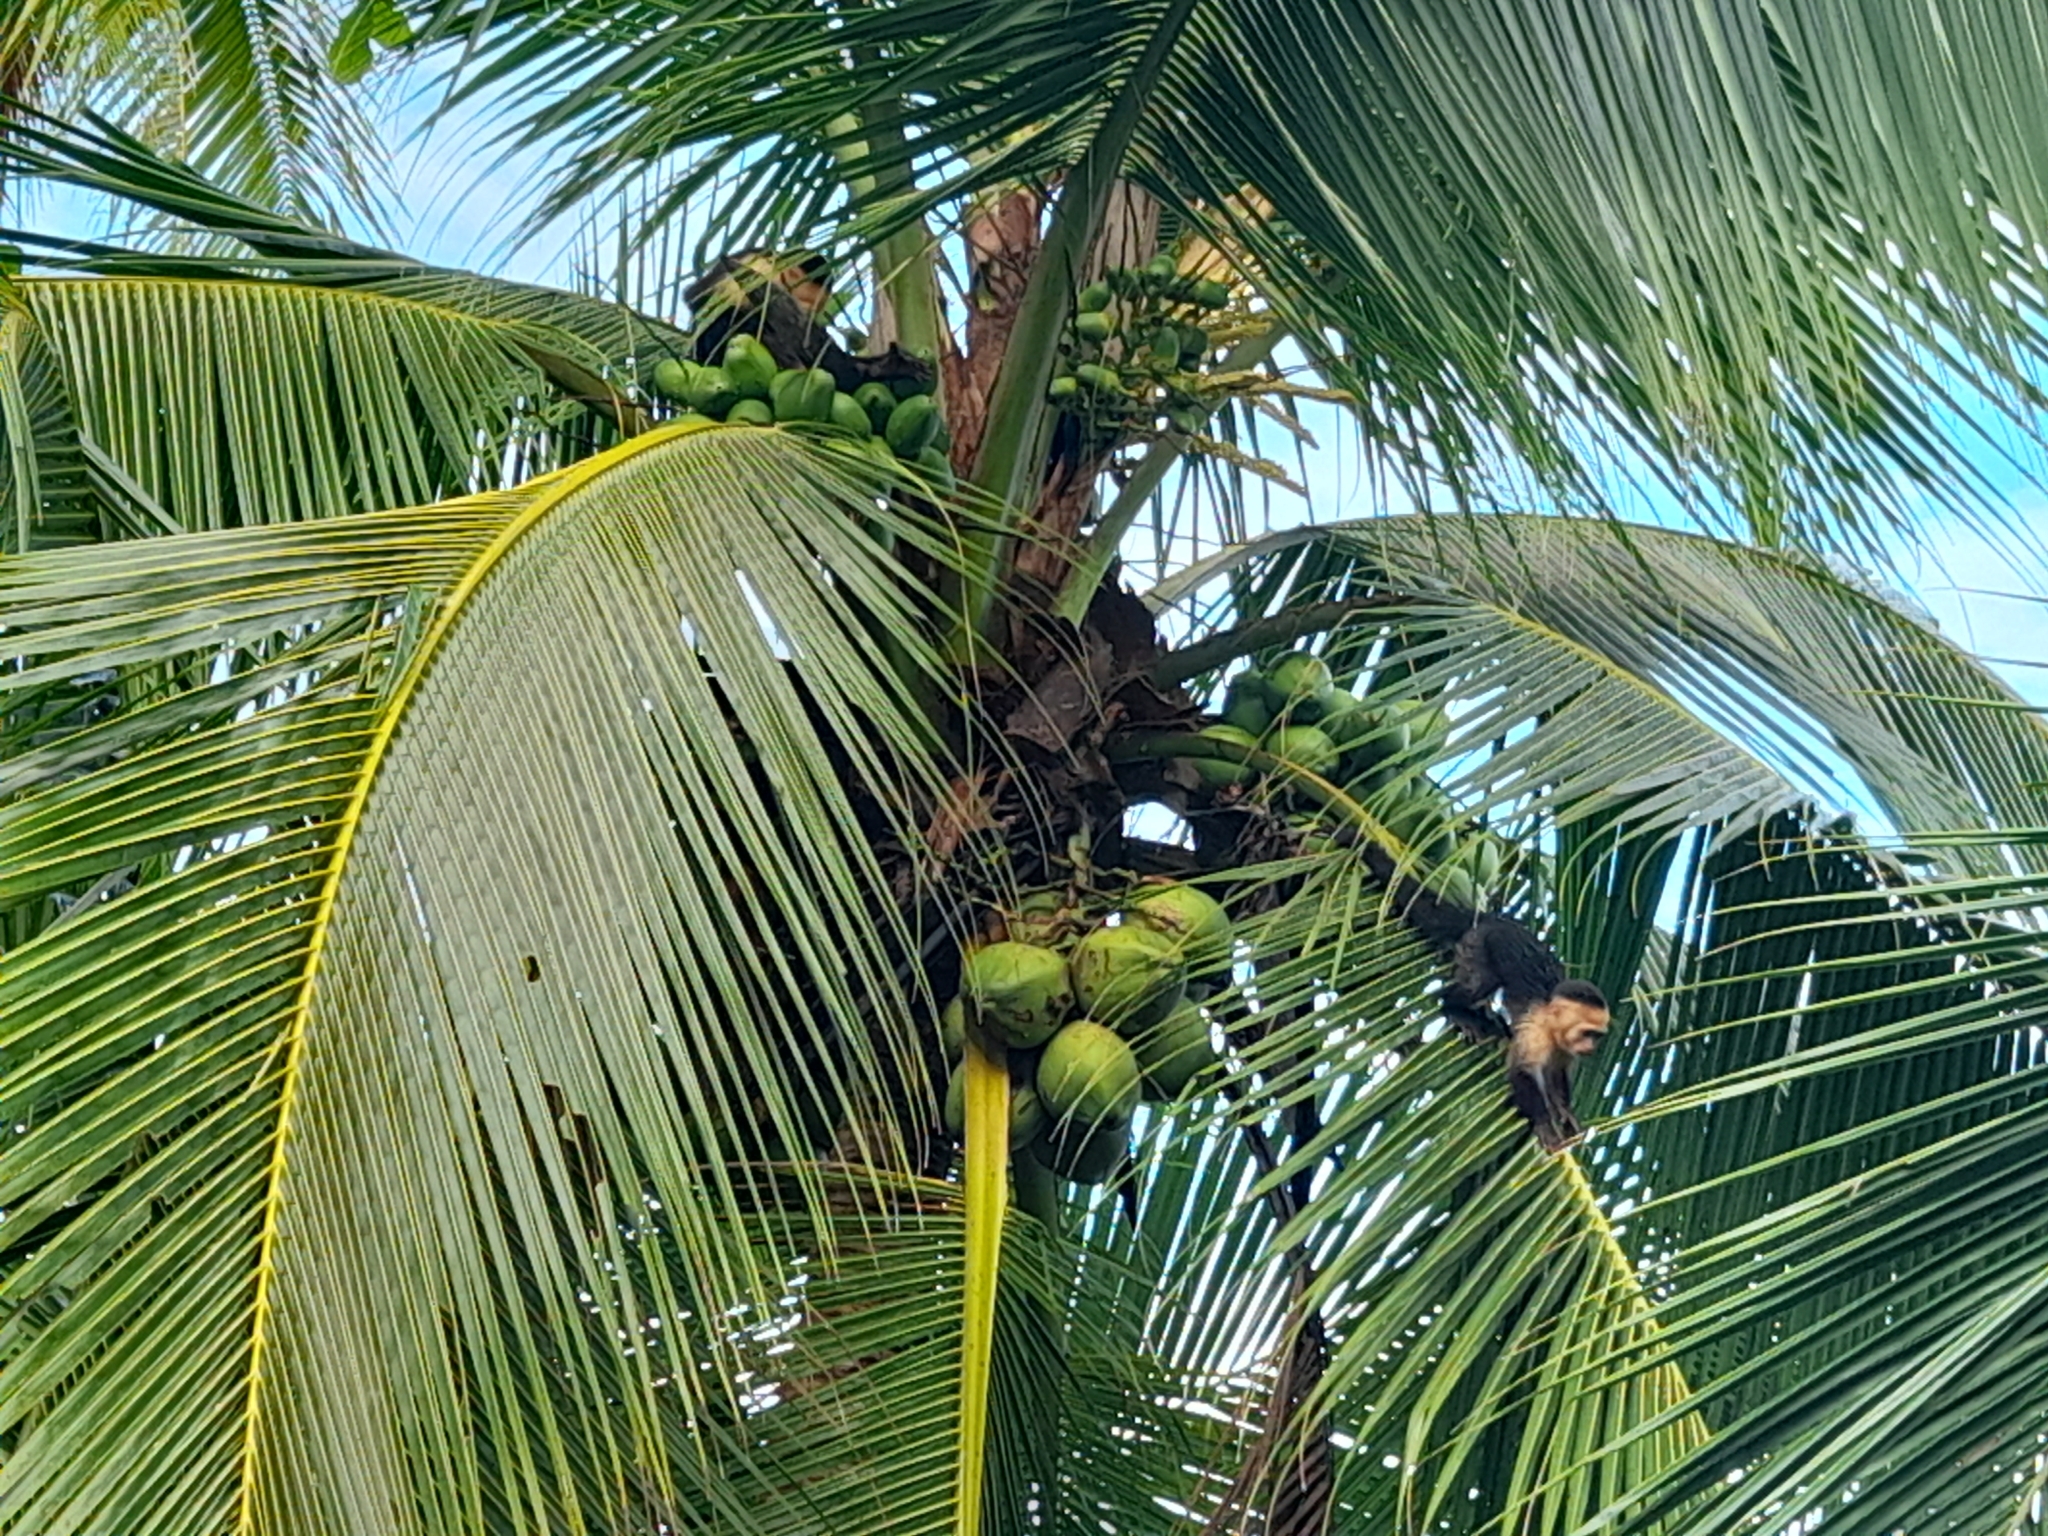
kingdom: Animalia
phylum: Chordata
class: Mammalia
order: Primates
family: Cebidae
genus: Cebus
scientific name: Cebus imitator
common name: Panamanian white-faced capuchin
